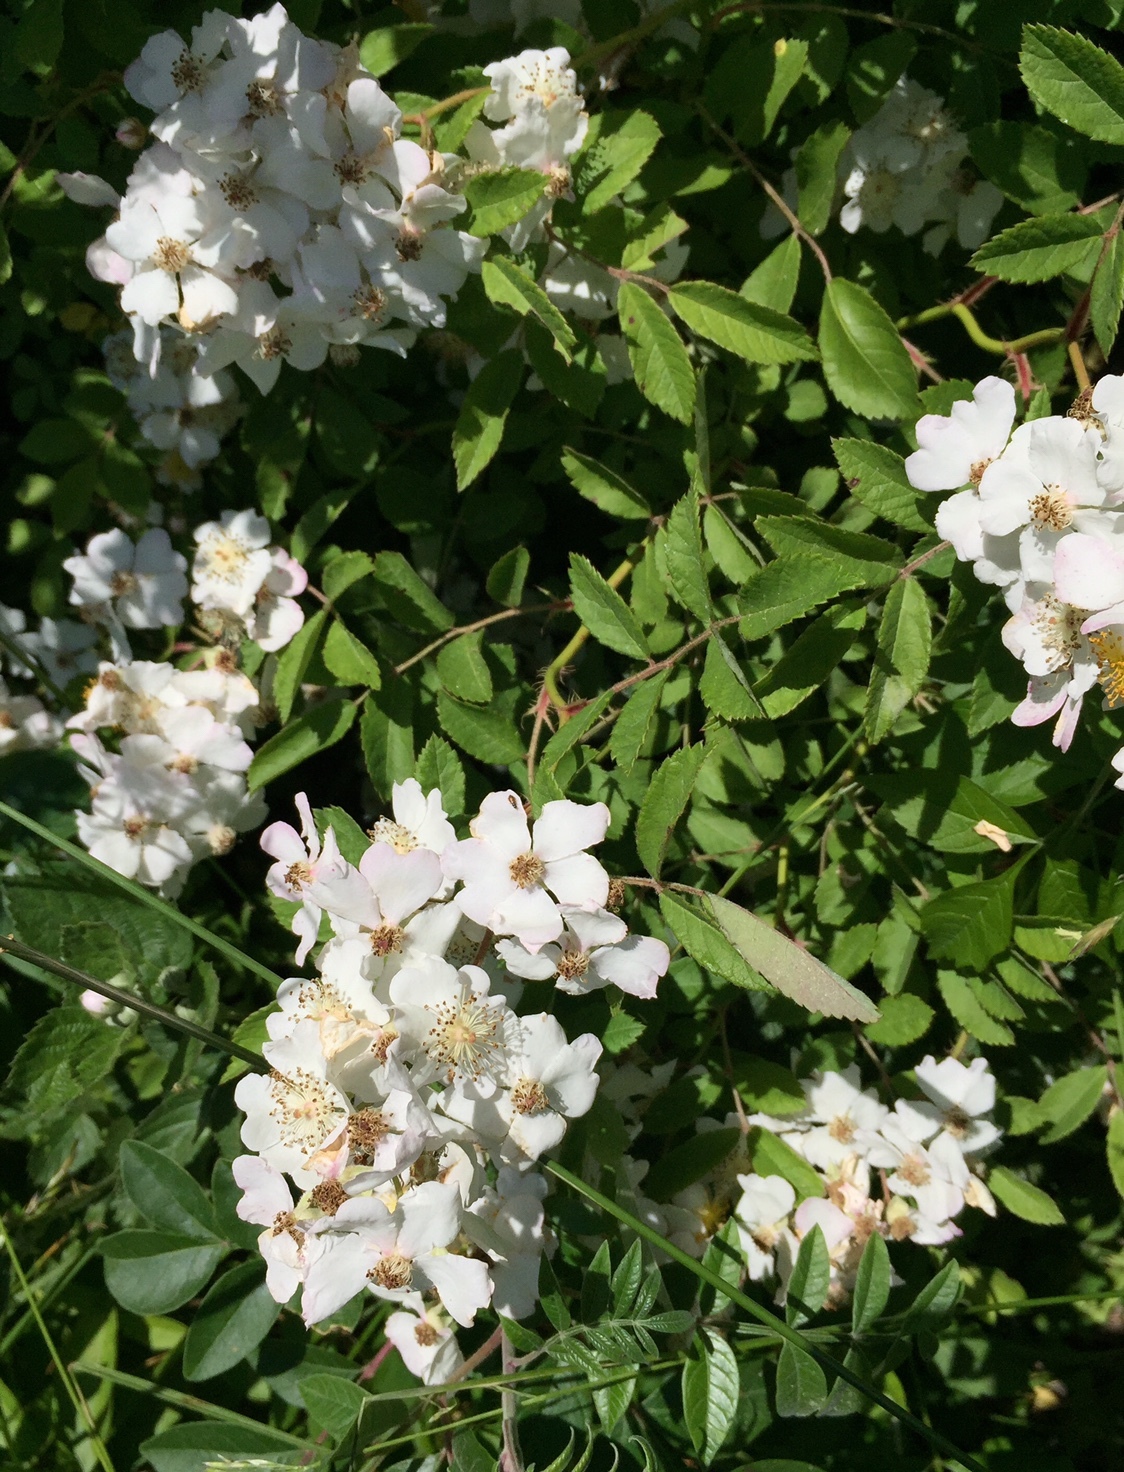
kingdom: Plantae
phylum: Tracheophyta
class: Magnoliopsida
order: Rosales
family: Rosaceae
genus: Rosa
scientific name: Rosa multiflora
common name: Multiflora rose
